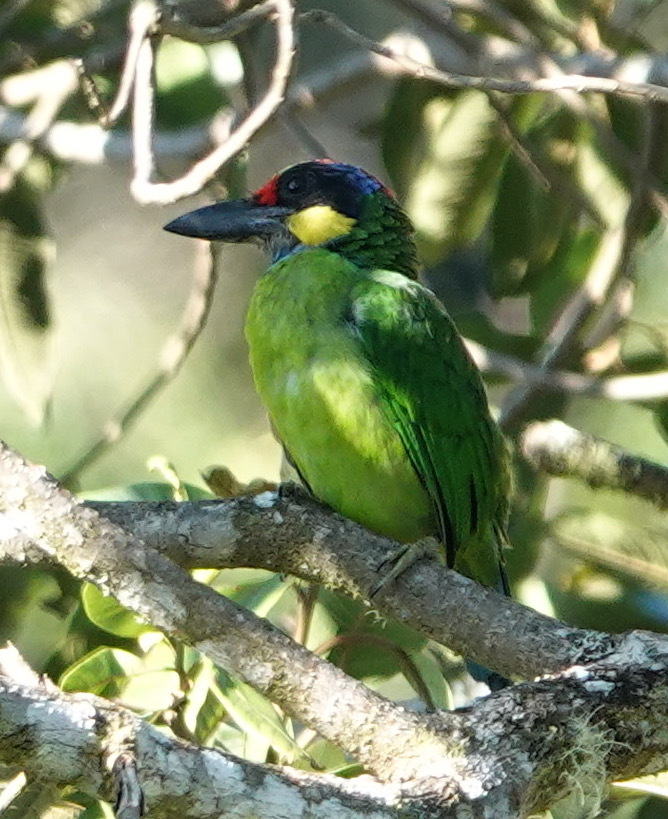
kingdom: Animalia
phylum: Chordata
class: Aves
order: Piciformes
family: Megalaimidae
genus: Psilopogon
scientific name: Psilopogon chrysopogon
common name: Golden-whiskered barbet
